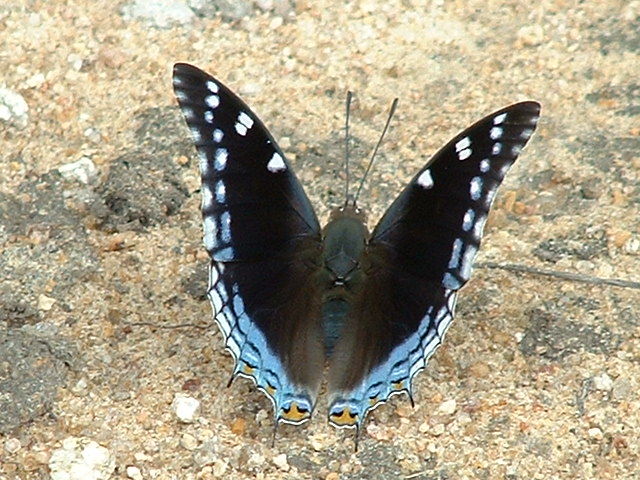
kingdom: Animalia
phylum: Arthropoda
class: Insecta
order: Lepidoptera
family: Nymphalidae
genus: Charaxes
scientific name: Charaxes guderiana
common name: Blue-spangled charaxes
